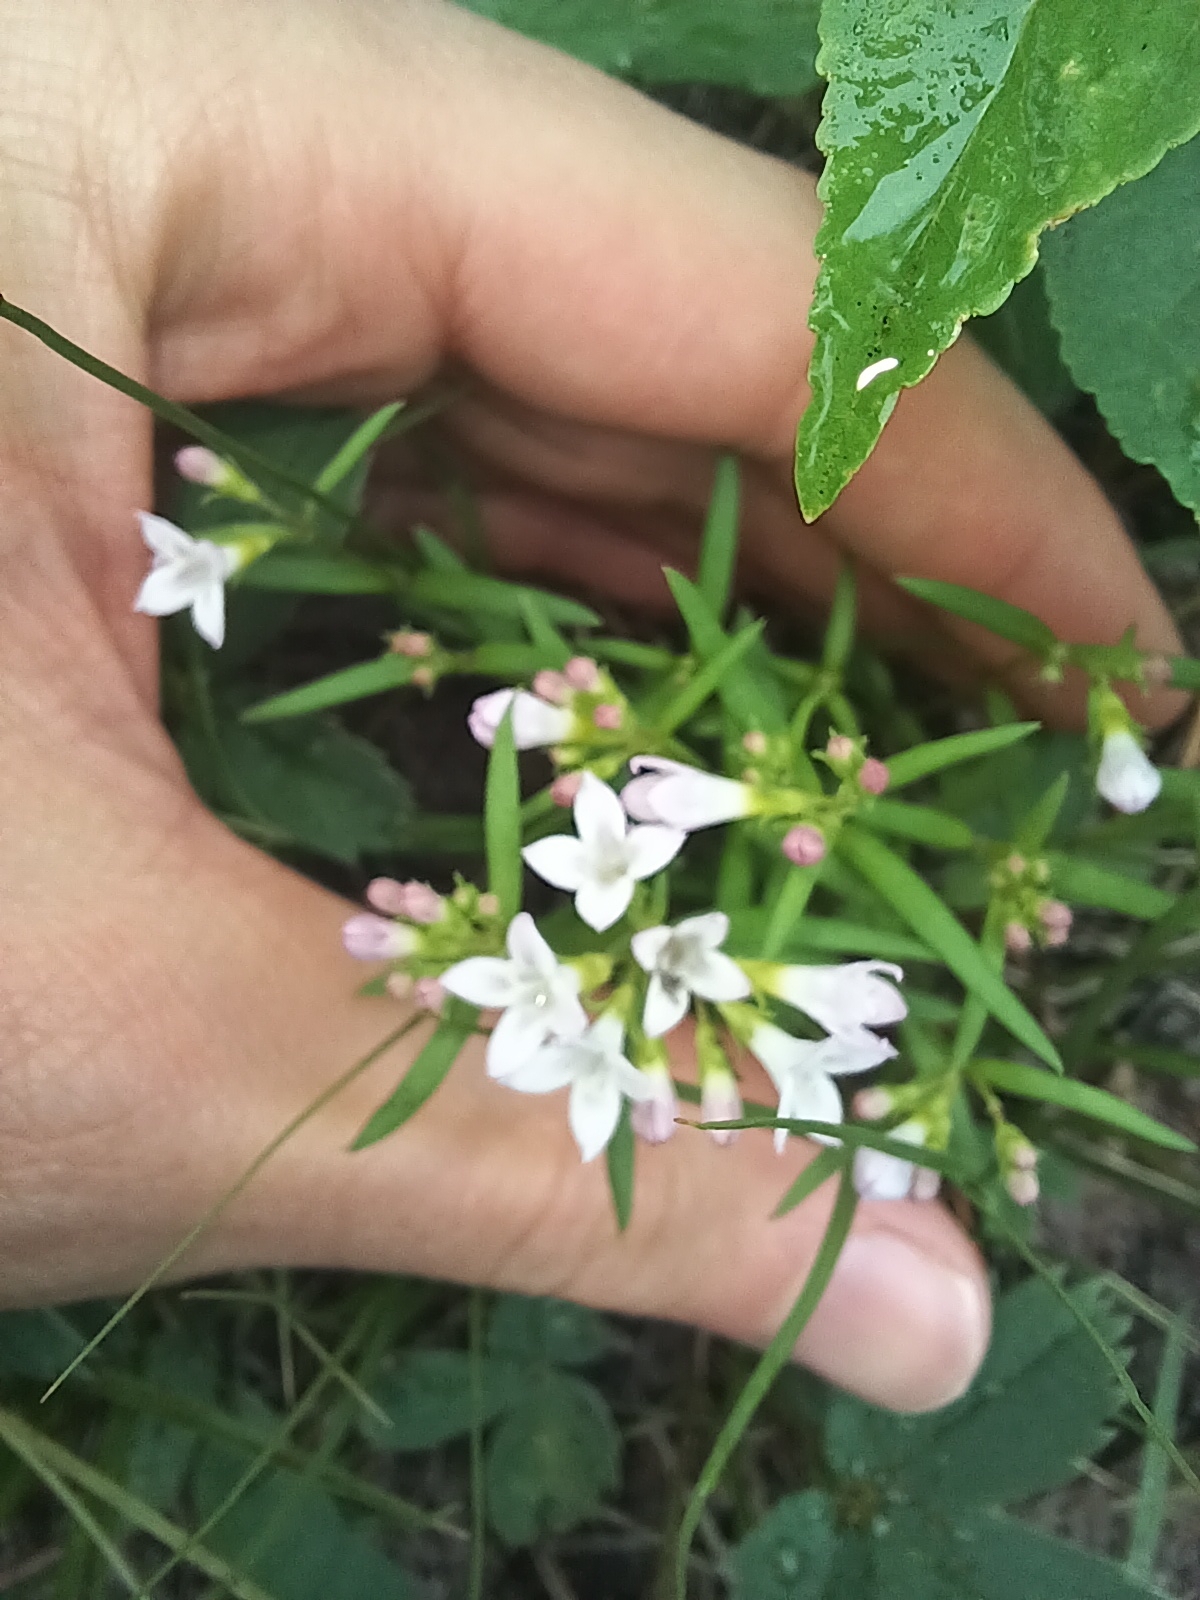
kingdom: Plantae
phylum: Tracheophyta
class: Magnoliopsida
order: Gentianales
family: Rubiaceae
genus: Houstonia
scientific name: Houstonia longifolia
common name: Long-leaved bluets
